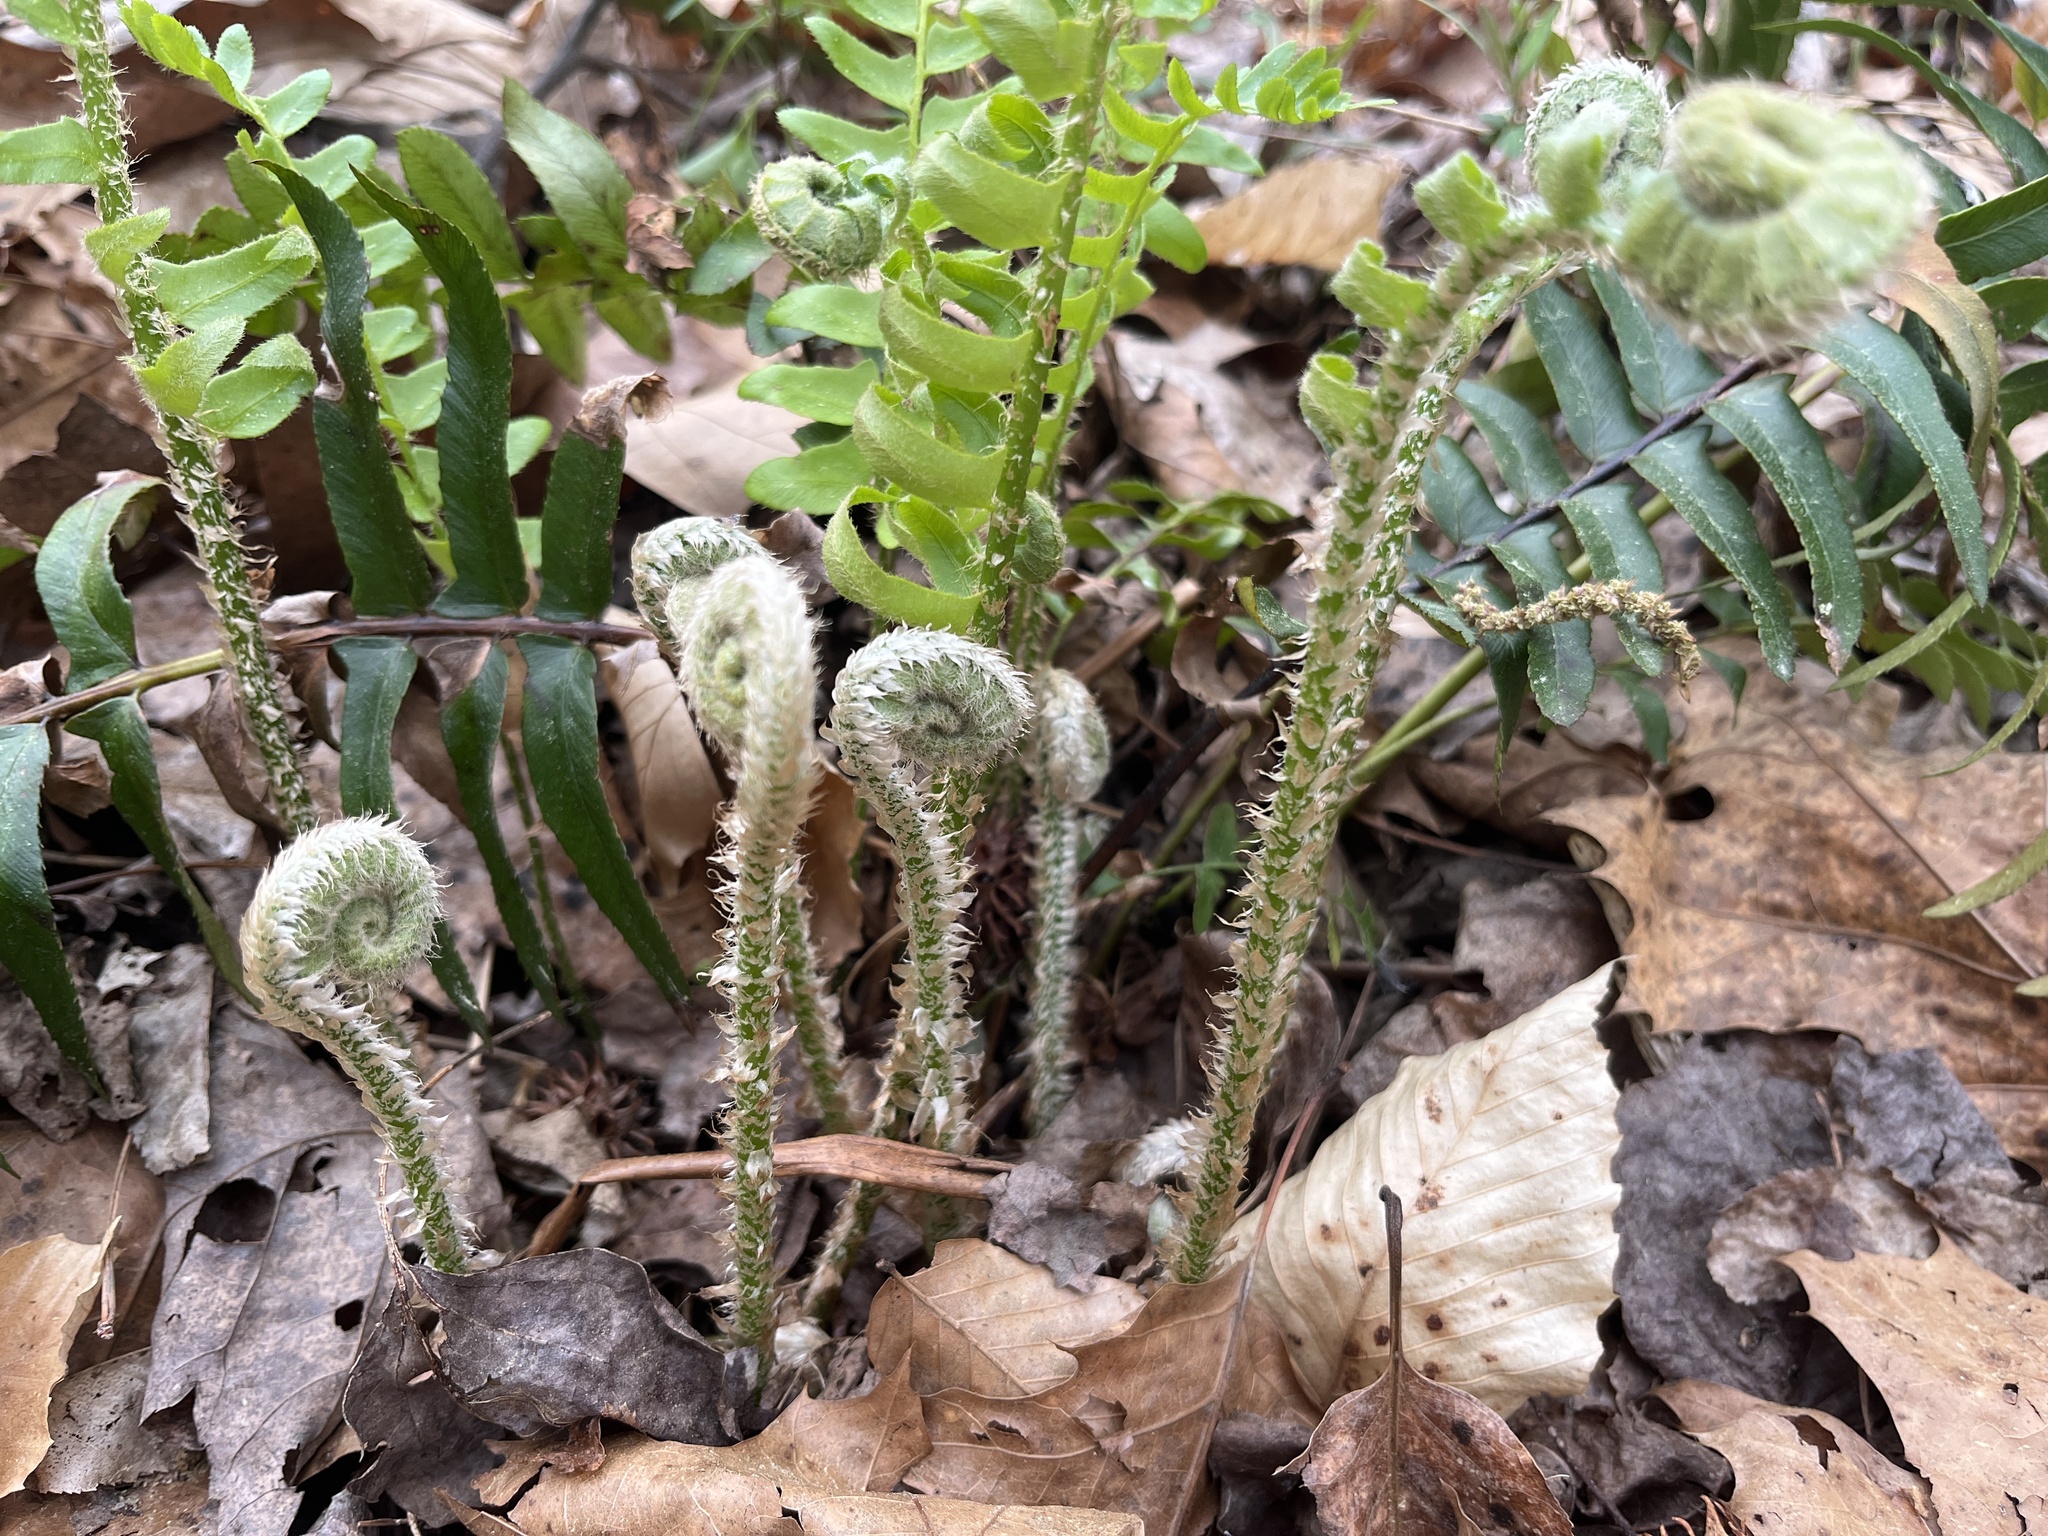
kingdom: Plantae
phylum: Tracheophyta
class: Polypodiopsida
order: Polypodiales
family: Dryopteridaceae
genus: Polystichum
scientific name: Polystichum acrostichoides
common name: Christmas fern
